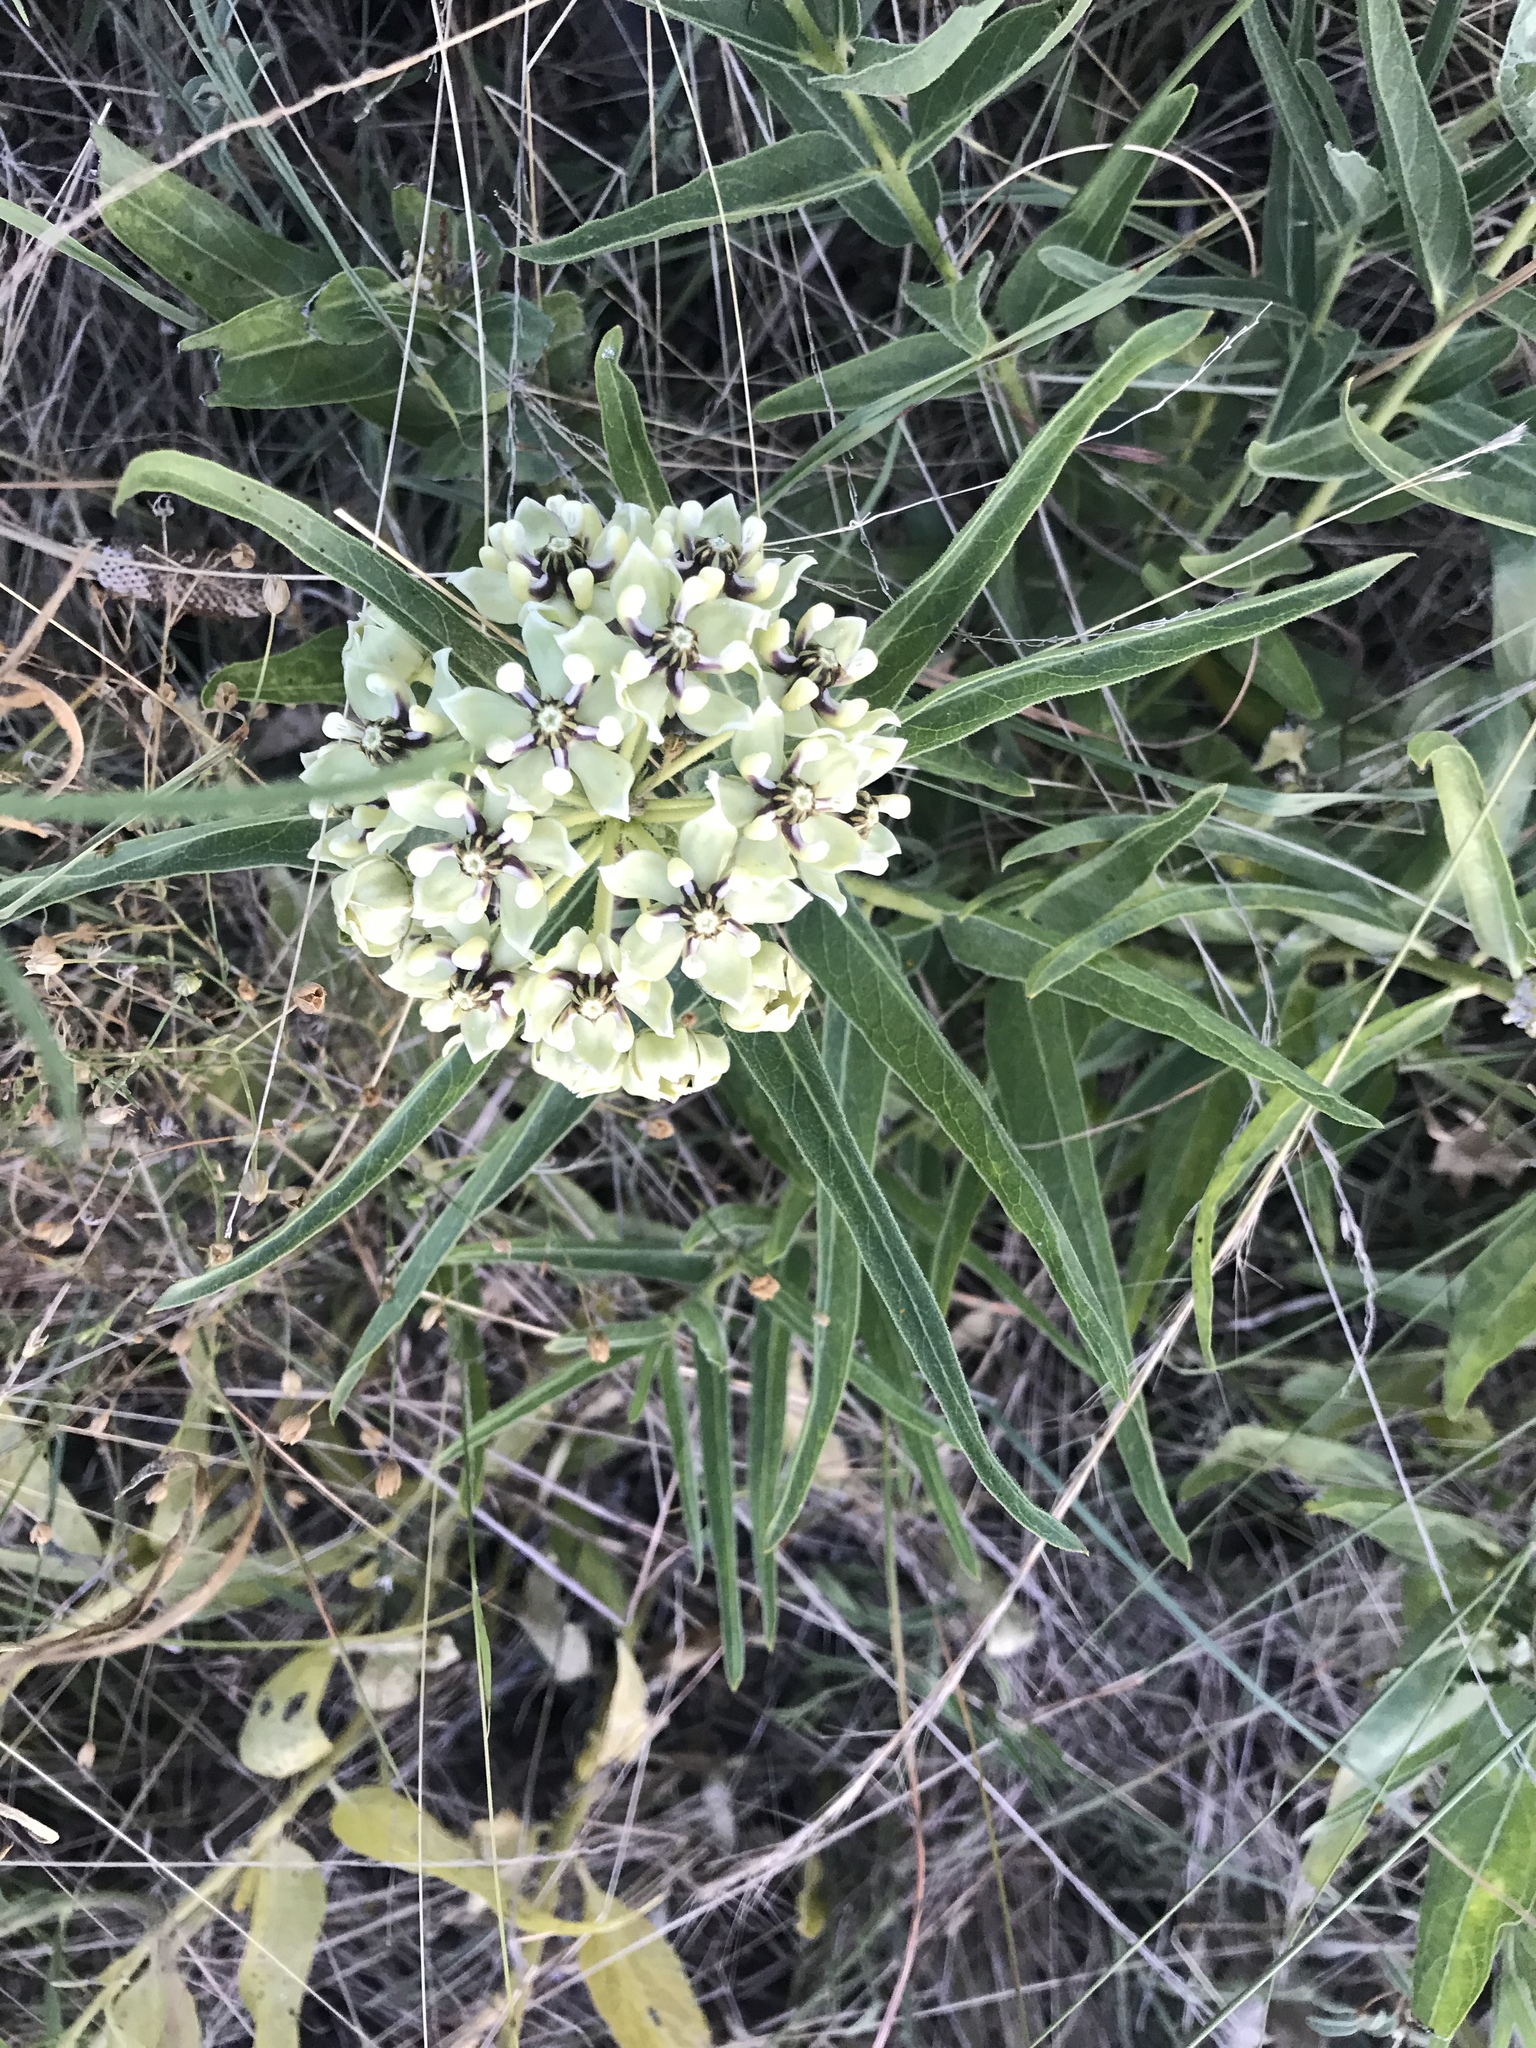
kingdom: Plantae
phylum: Tracheophyta
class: Magnoliopsida
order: Gentianales
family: Apocynaceae
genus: Asclepias
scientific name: Asclepias asperula
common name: Antelope horns
